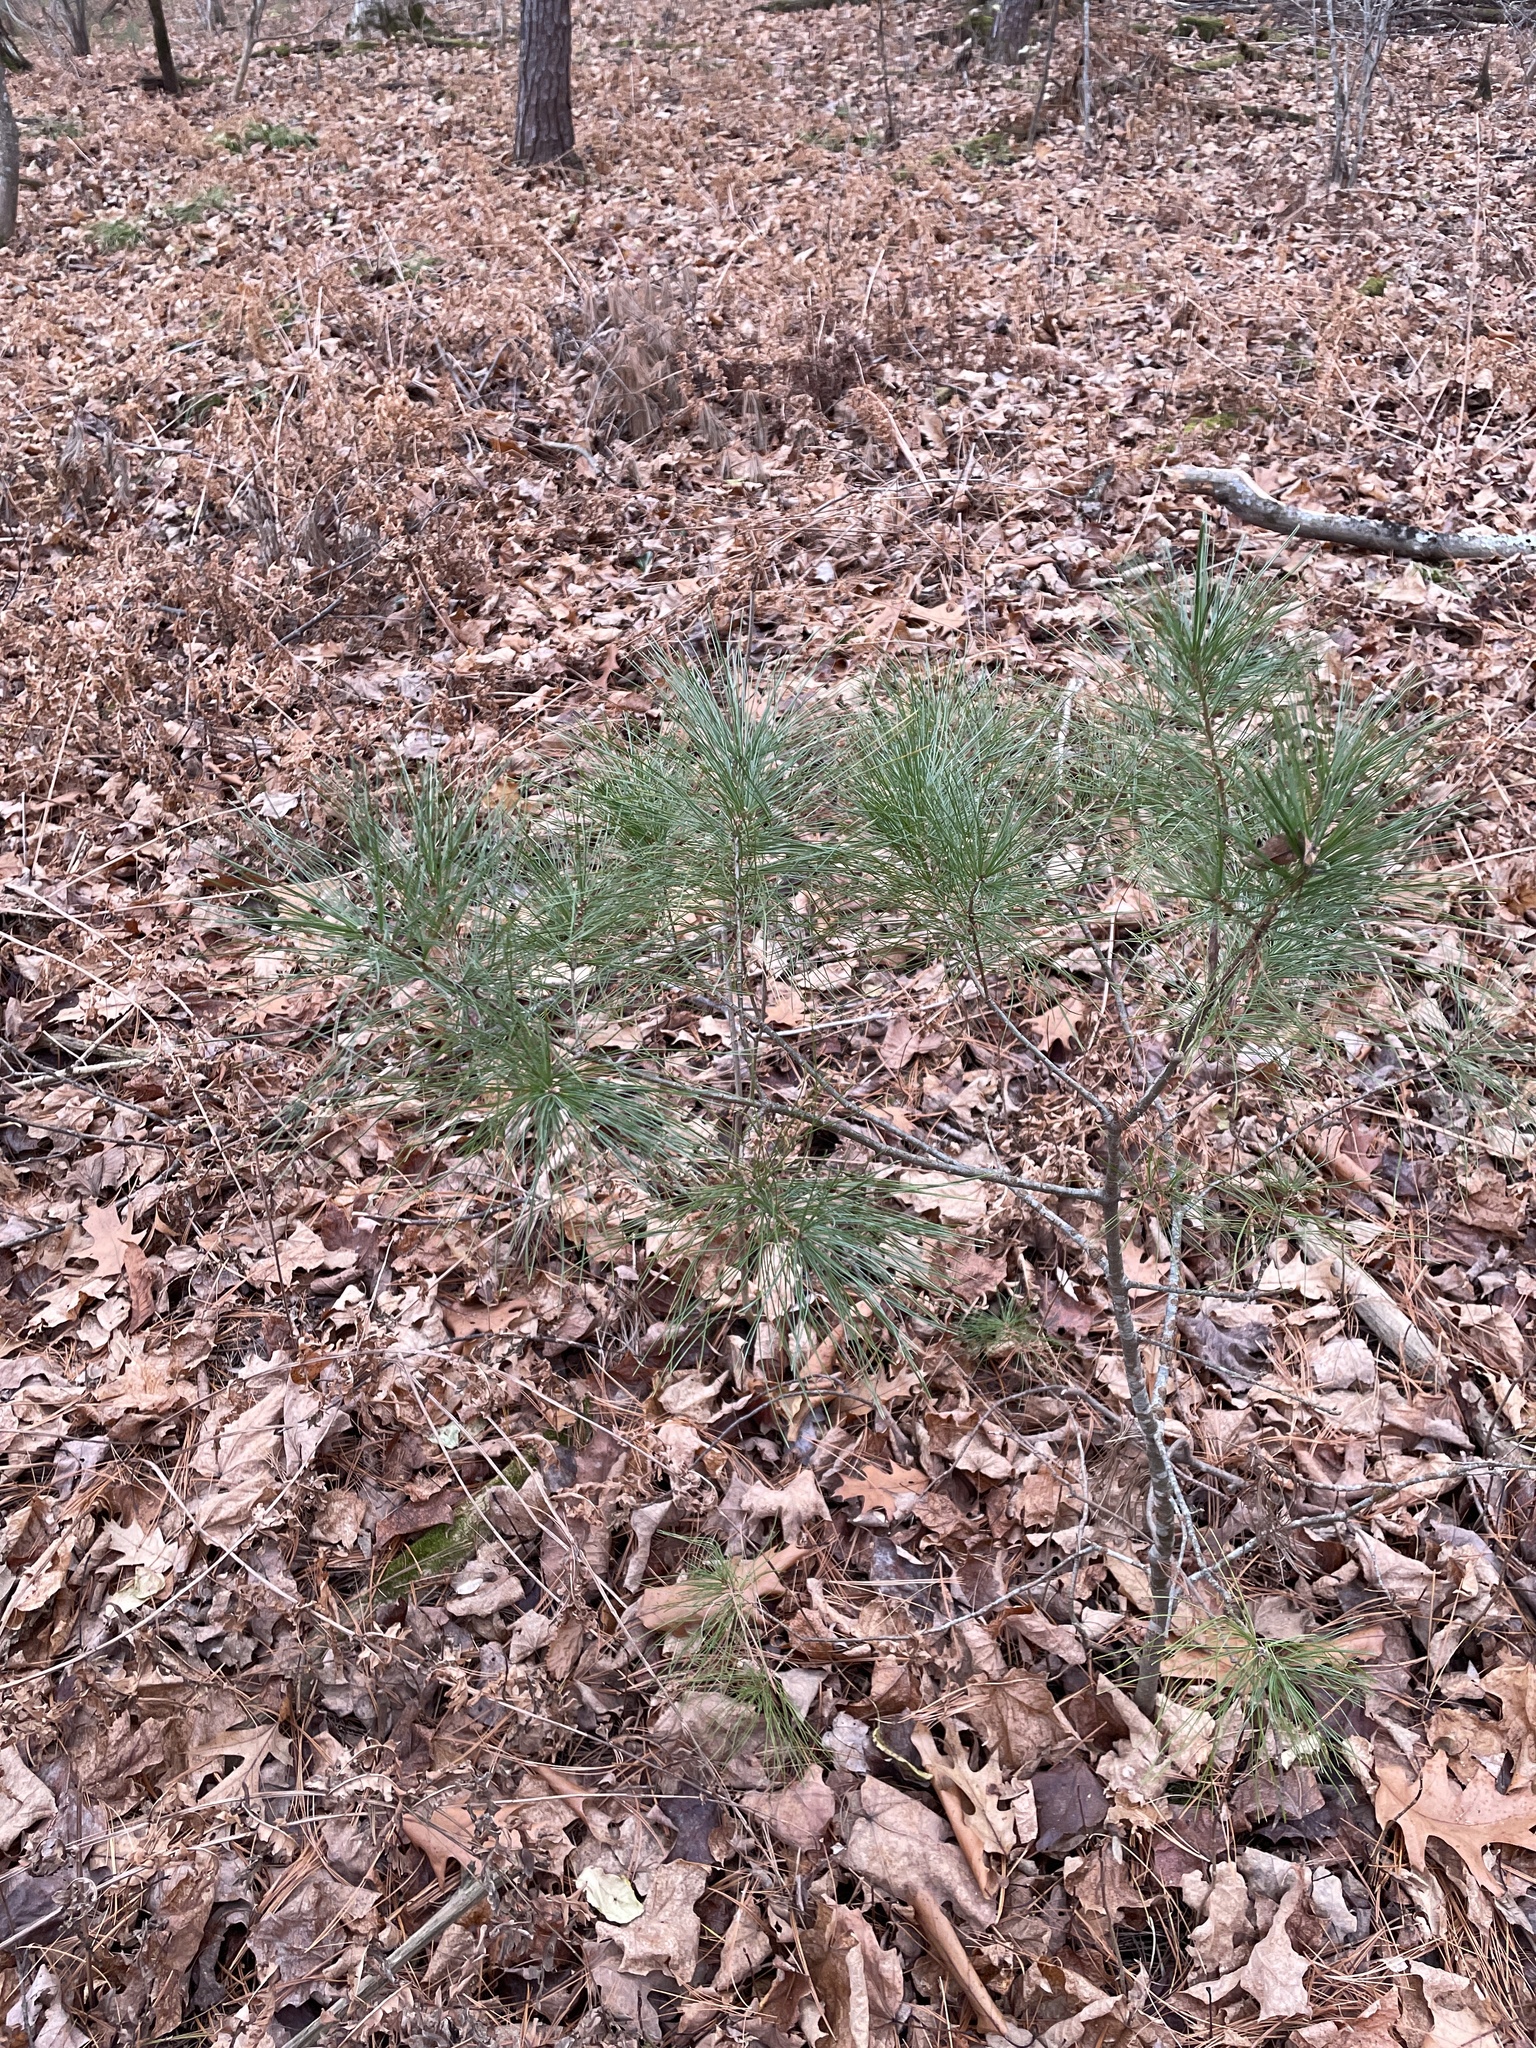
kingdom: Plantae
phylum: Tracheophyta
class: Pinopsida
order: Pinales
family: Pinaceae
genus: Pinus
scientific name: Pinus strobus
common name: Weymouth pine
